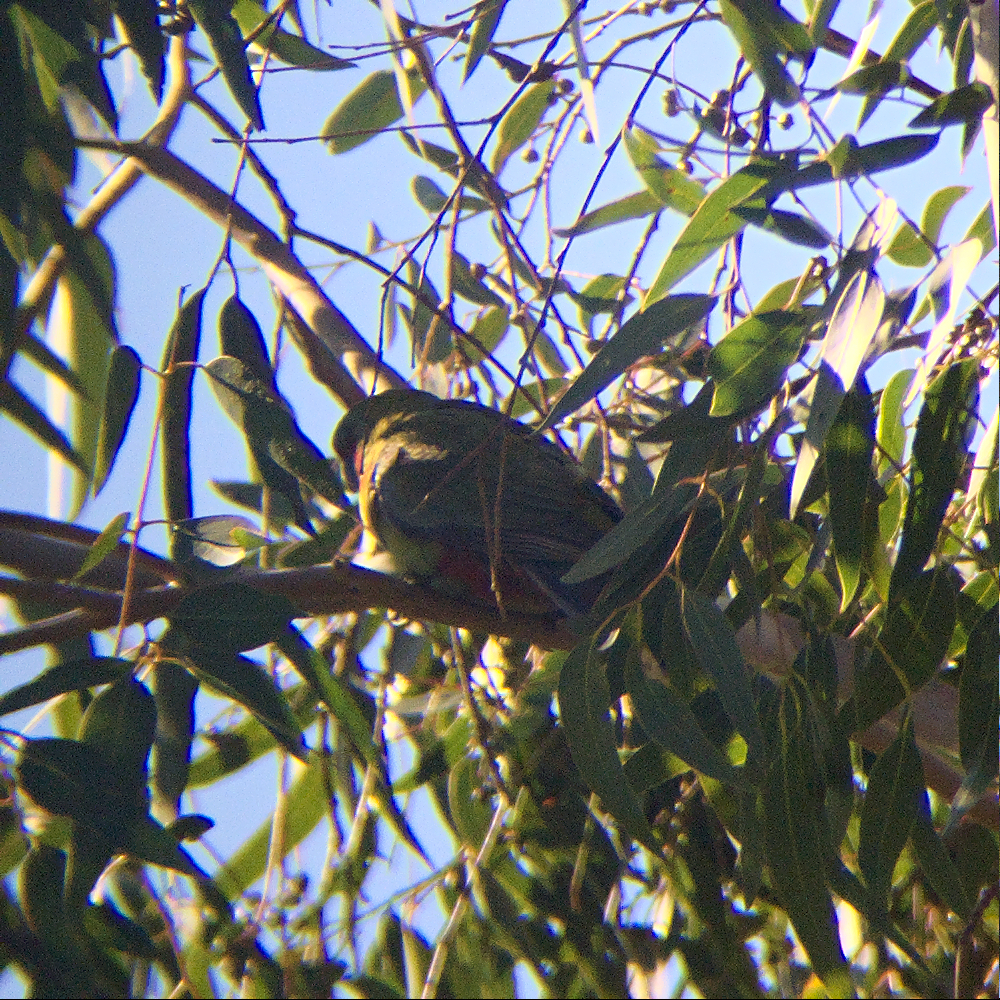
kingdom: Animalia
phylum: Chordata
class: Aves
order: Psittaciformes
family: Psittacidae
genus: Platycercus
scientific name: Platycercus elegans
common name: Crimson rosella
